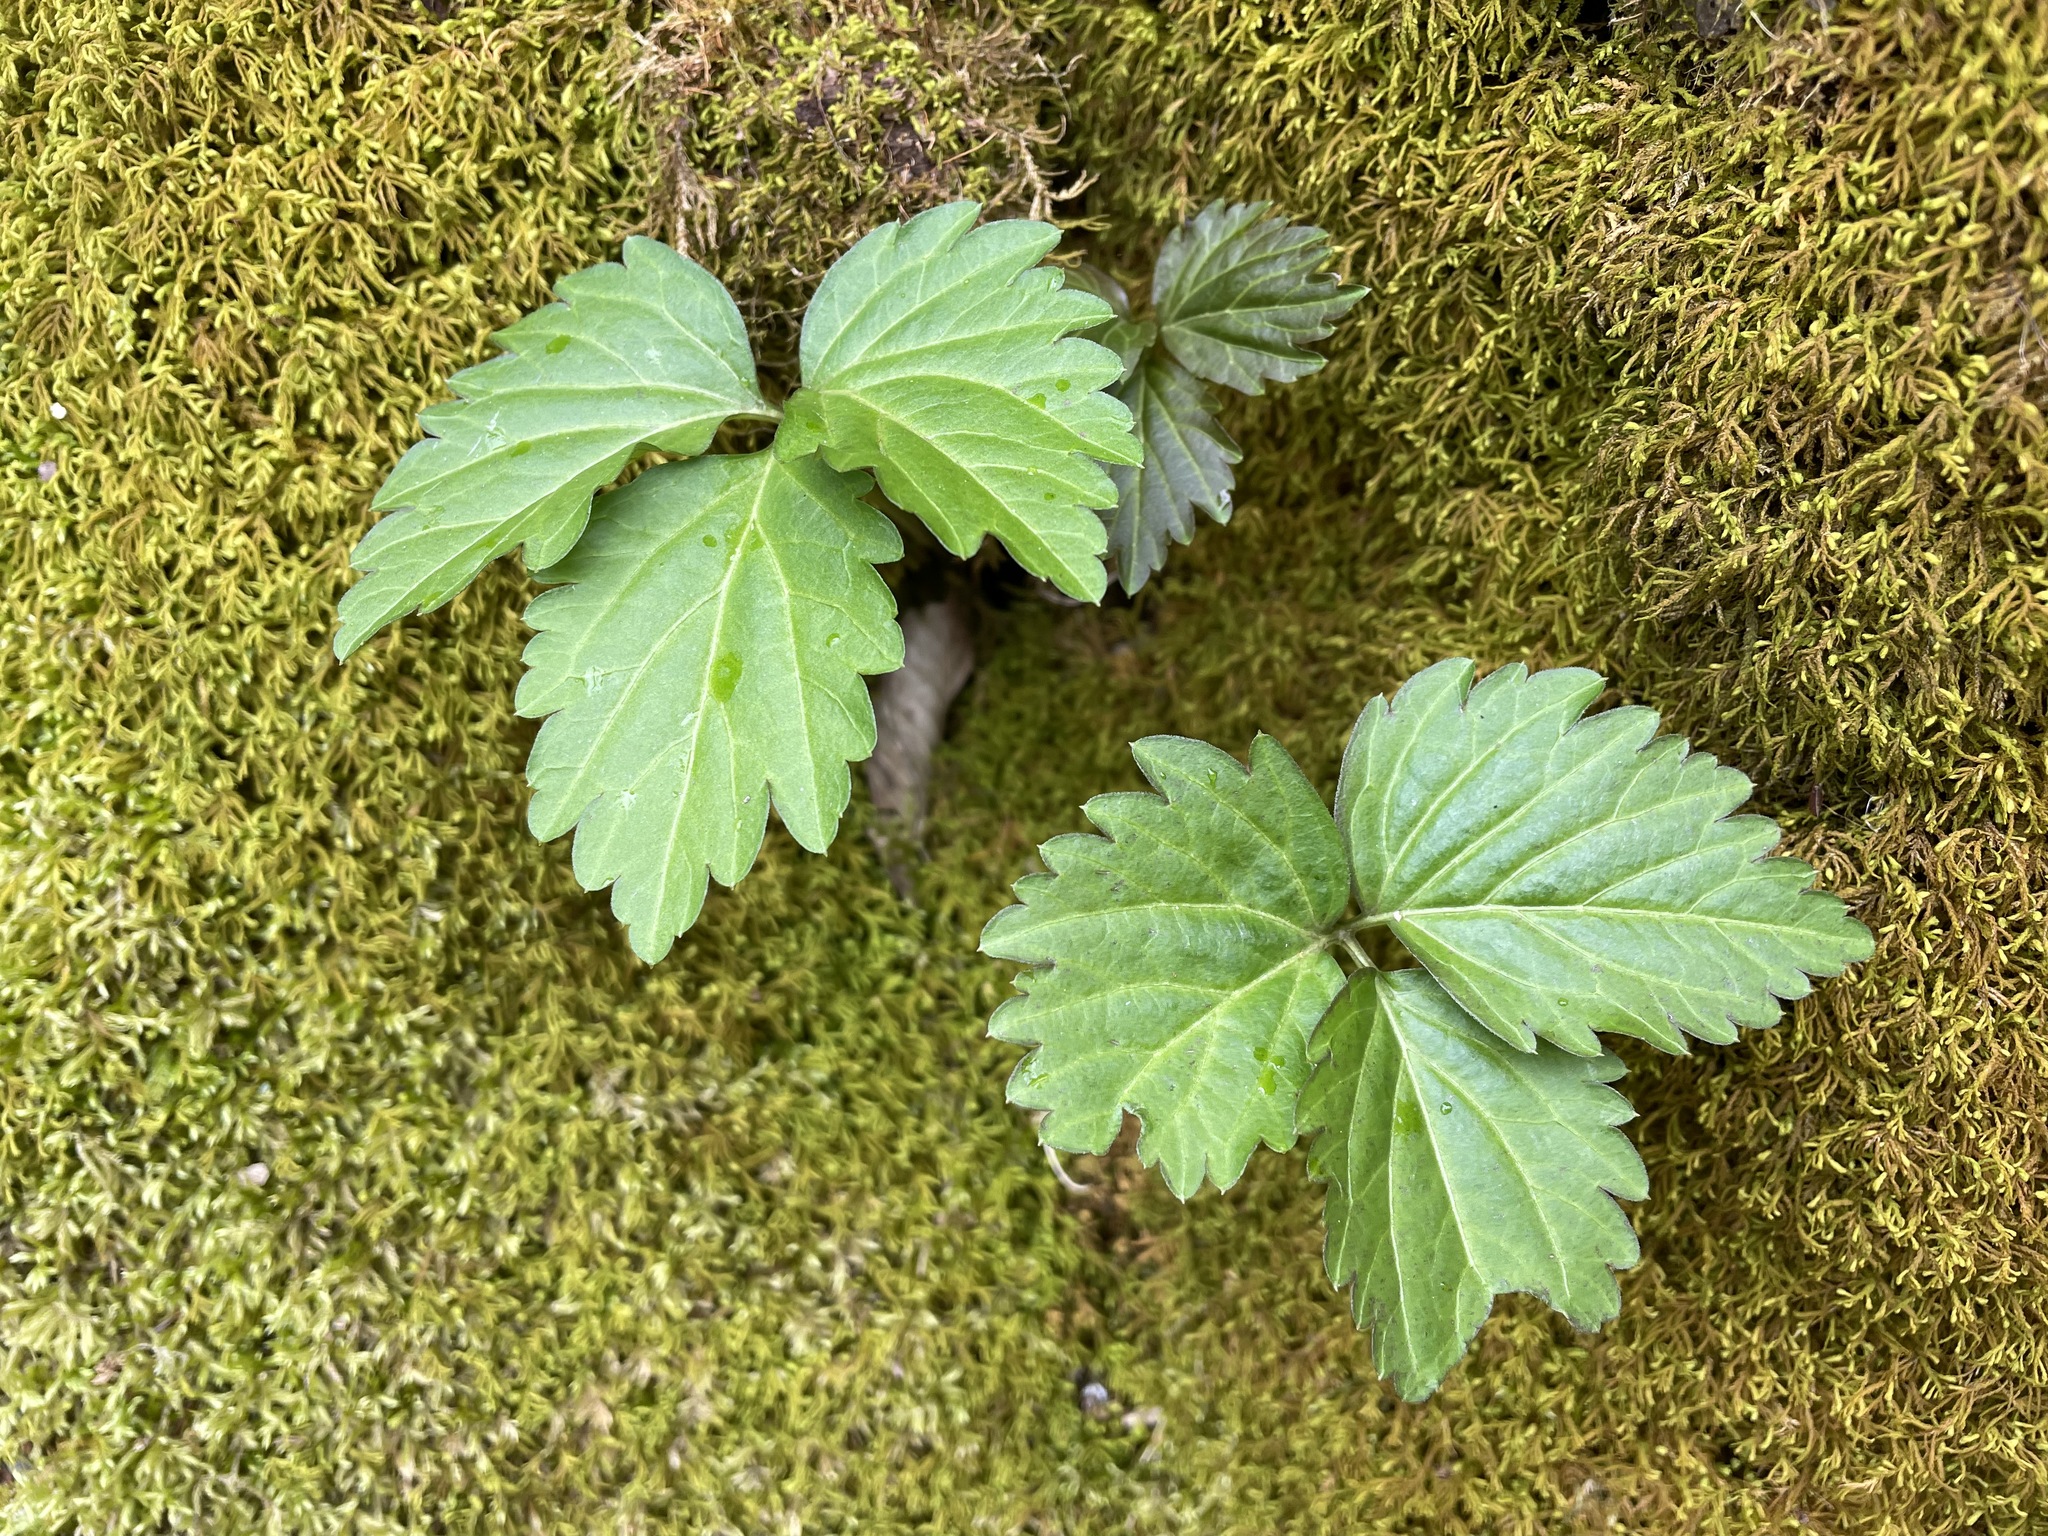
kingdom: Plantae
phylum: Tracheophyta
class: Magnoliopsida
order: Brassicales
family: Brassicaceae
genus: Cardamine
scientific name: Cardamine diphylla
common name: Broad-leaved toothwort
